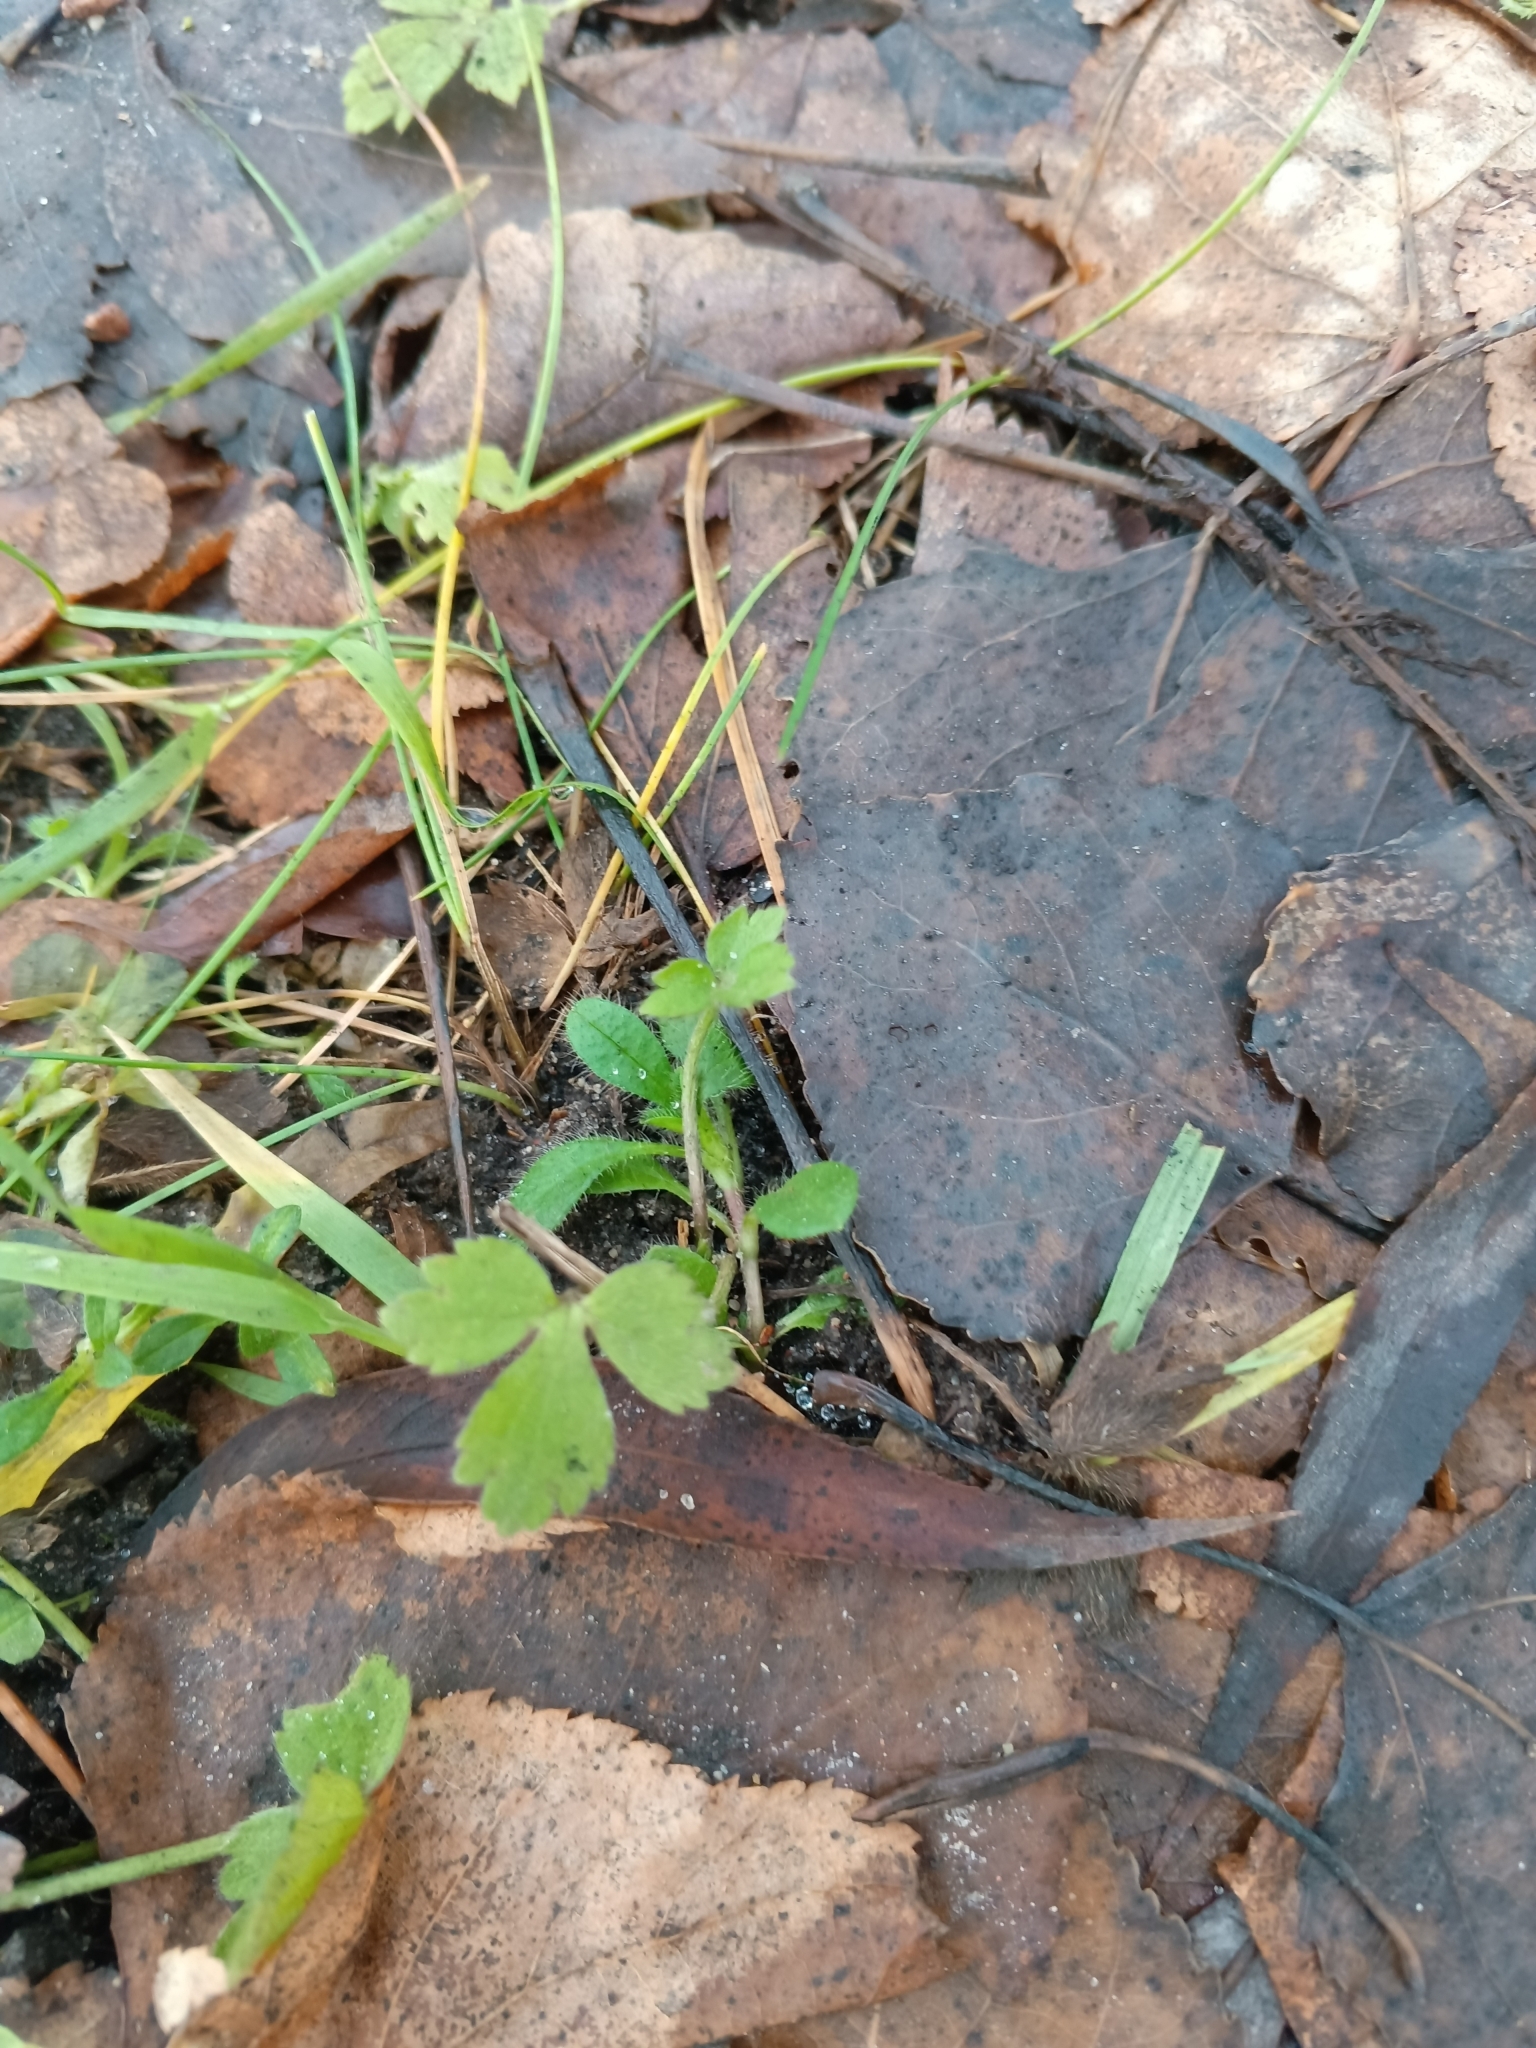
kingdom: Plantae
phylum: Tracheophyta
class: Magnoliopsida
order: Ranunculales
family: Ranunculaceae
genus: Ranunculus
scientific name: Ranunculus repens
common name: Creeping buttercup
